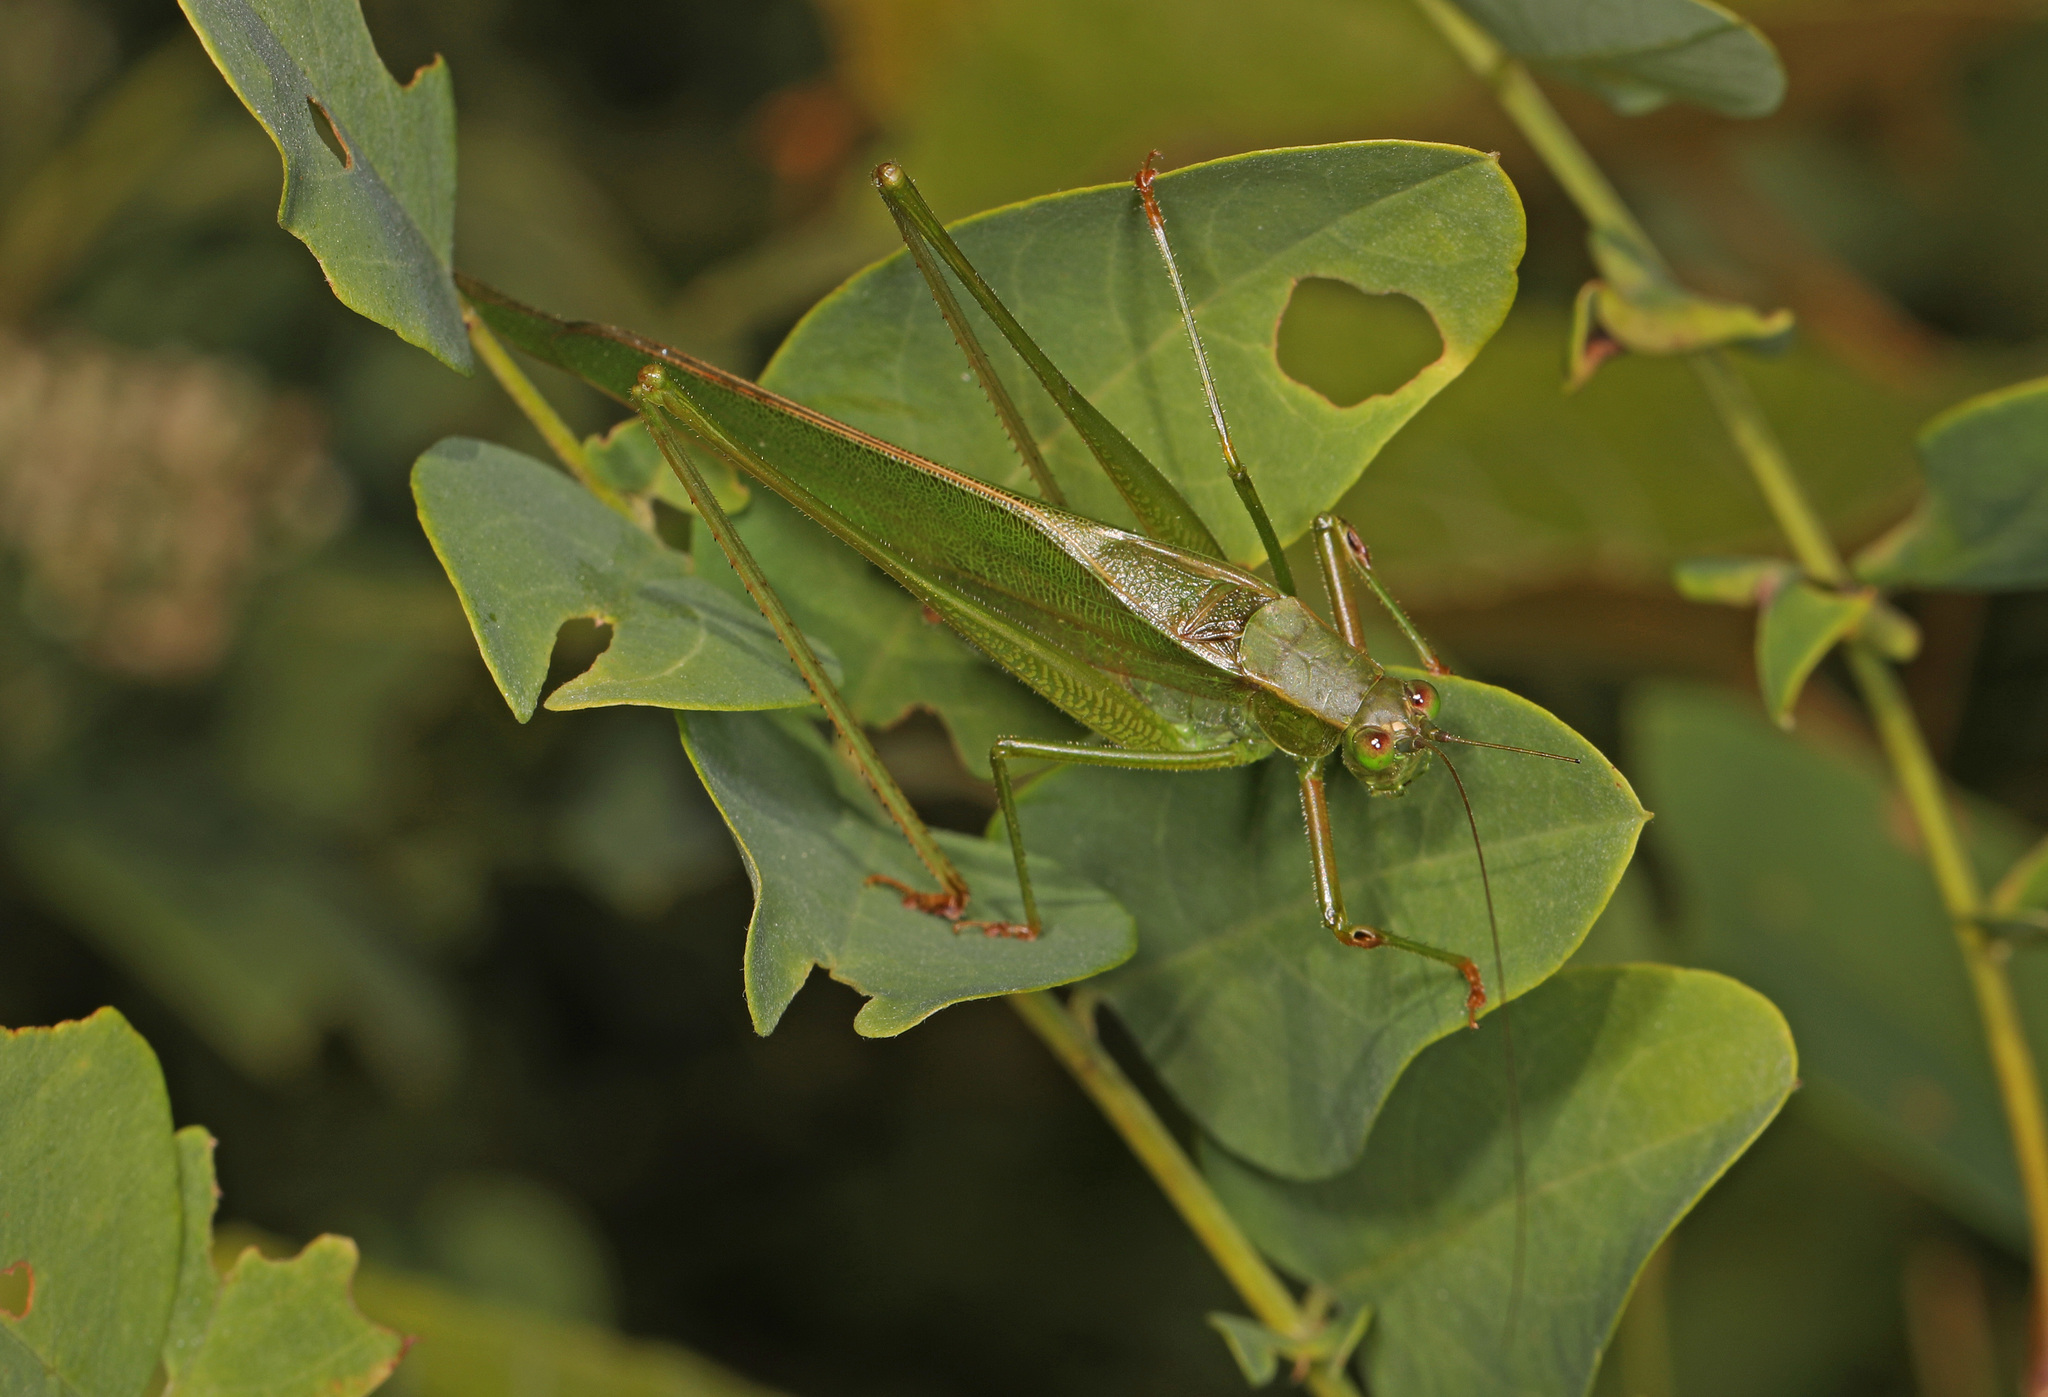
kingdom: Animalia
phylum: Arthropoda
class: Insecta
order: Orthoptera
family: Tettigoniidae
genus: Scudderia
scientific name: Scudderia furcata
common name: Fork-tailed bush katydid
